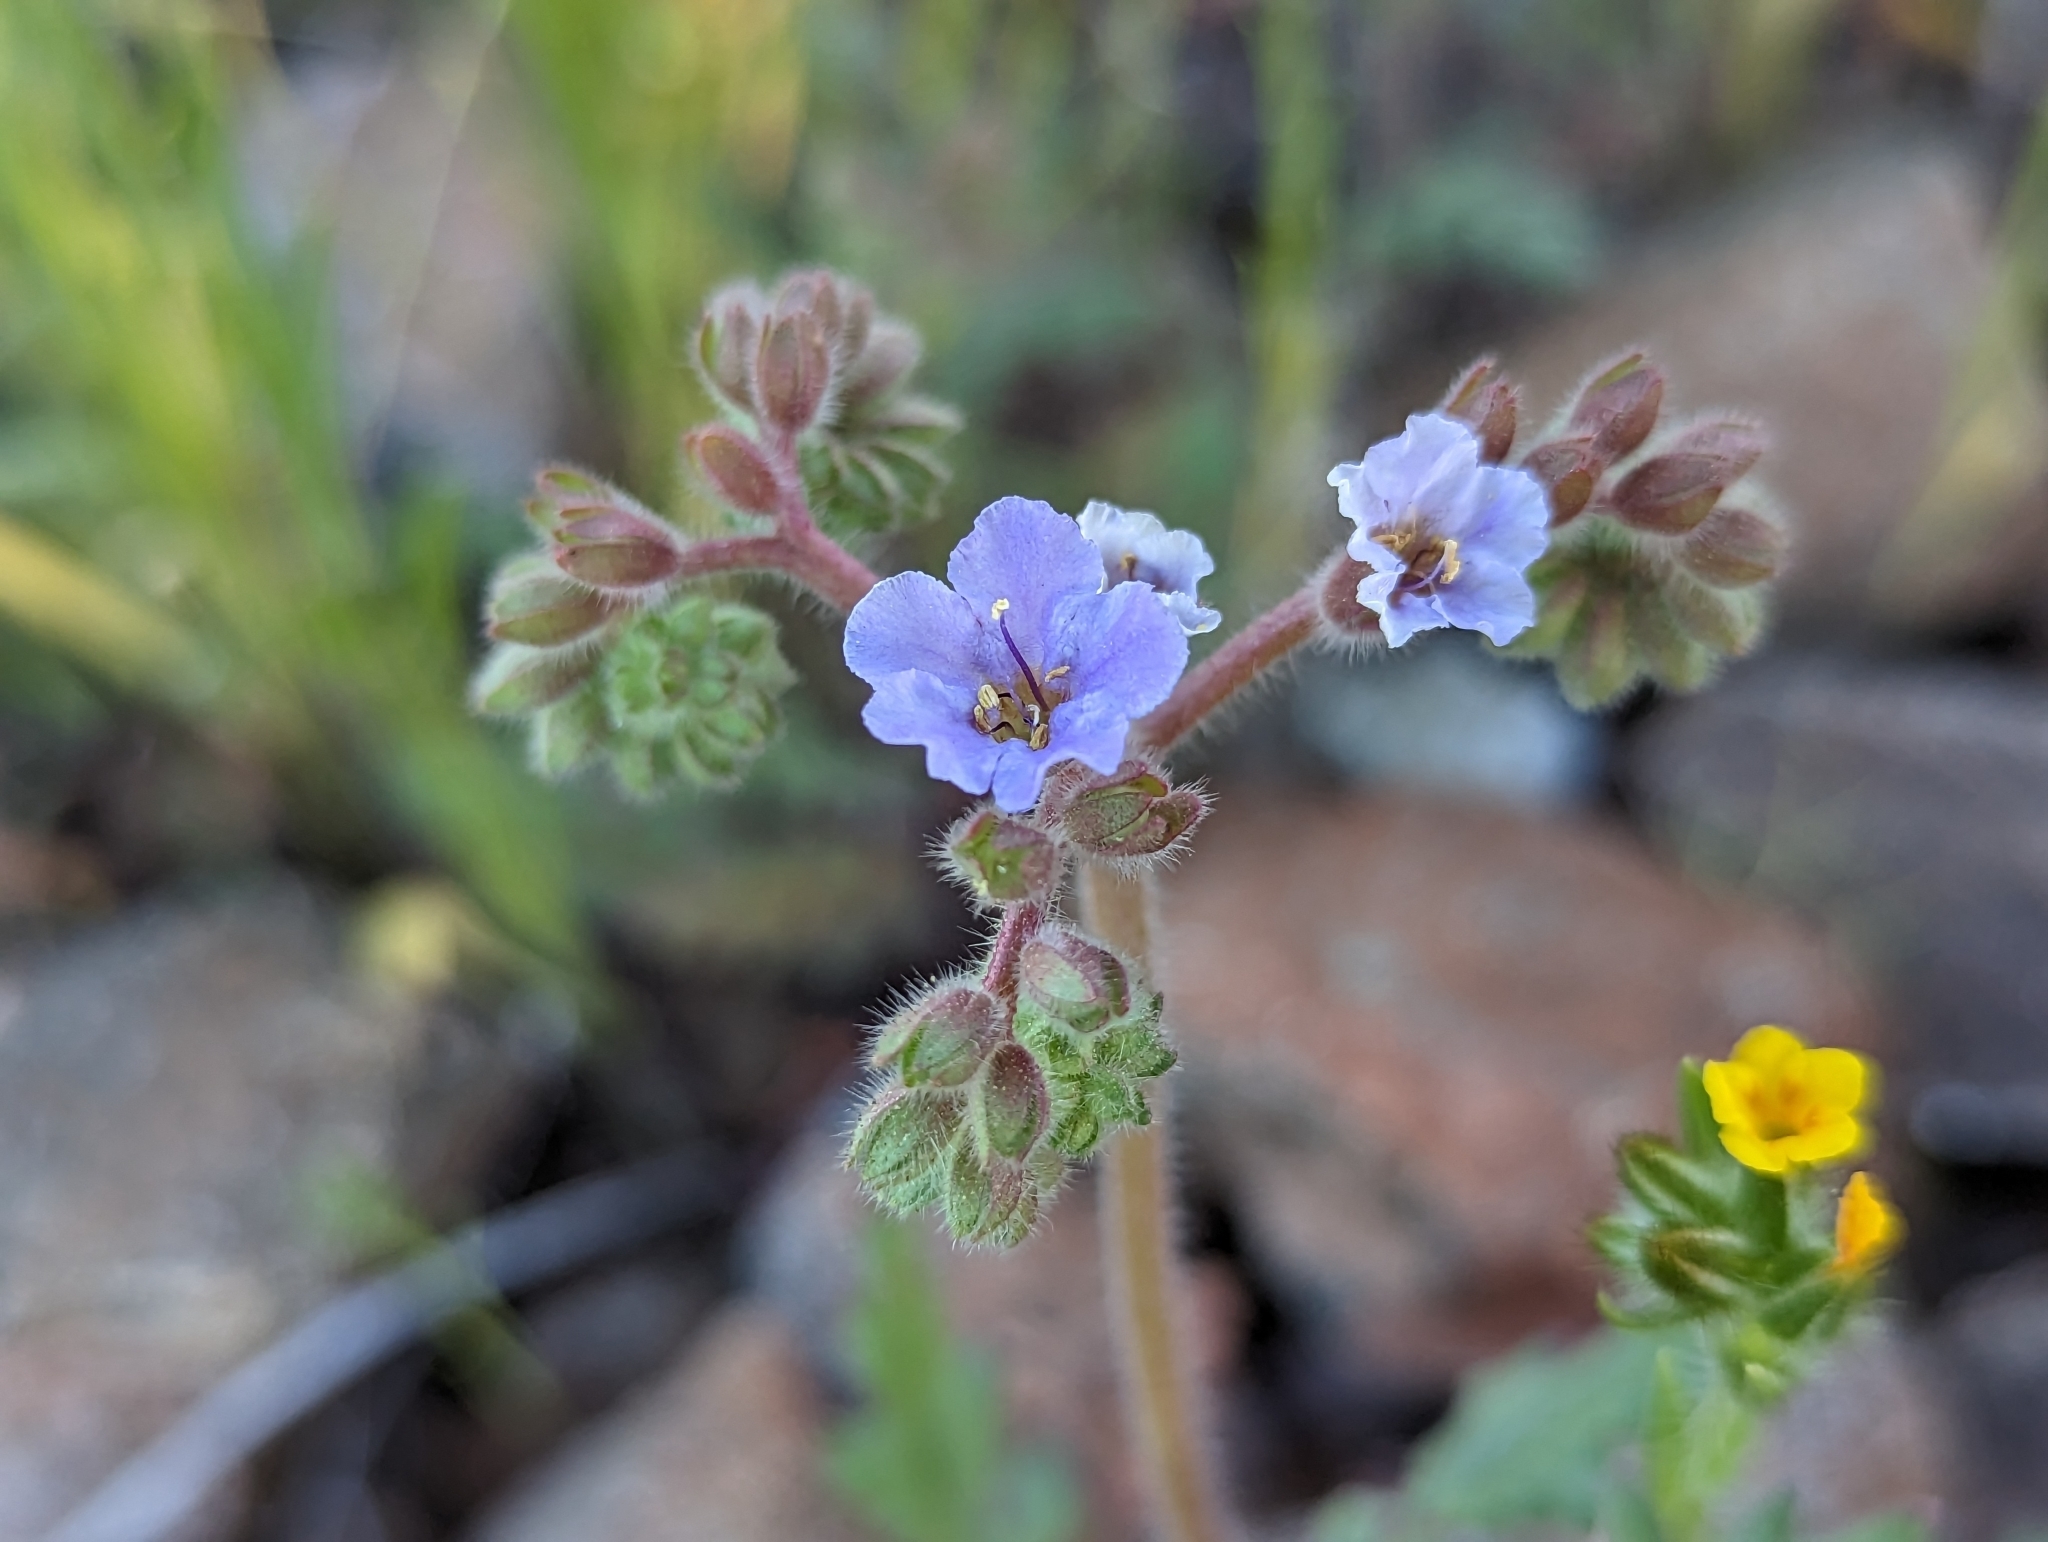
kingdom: Plantae
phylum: Tracheophyta
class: Magnoliopsida
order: Boraginales
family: Hydrophyllaceae
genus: Phacelia
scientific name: Phacelia crenulata
